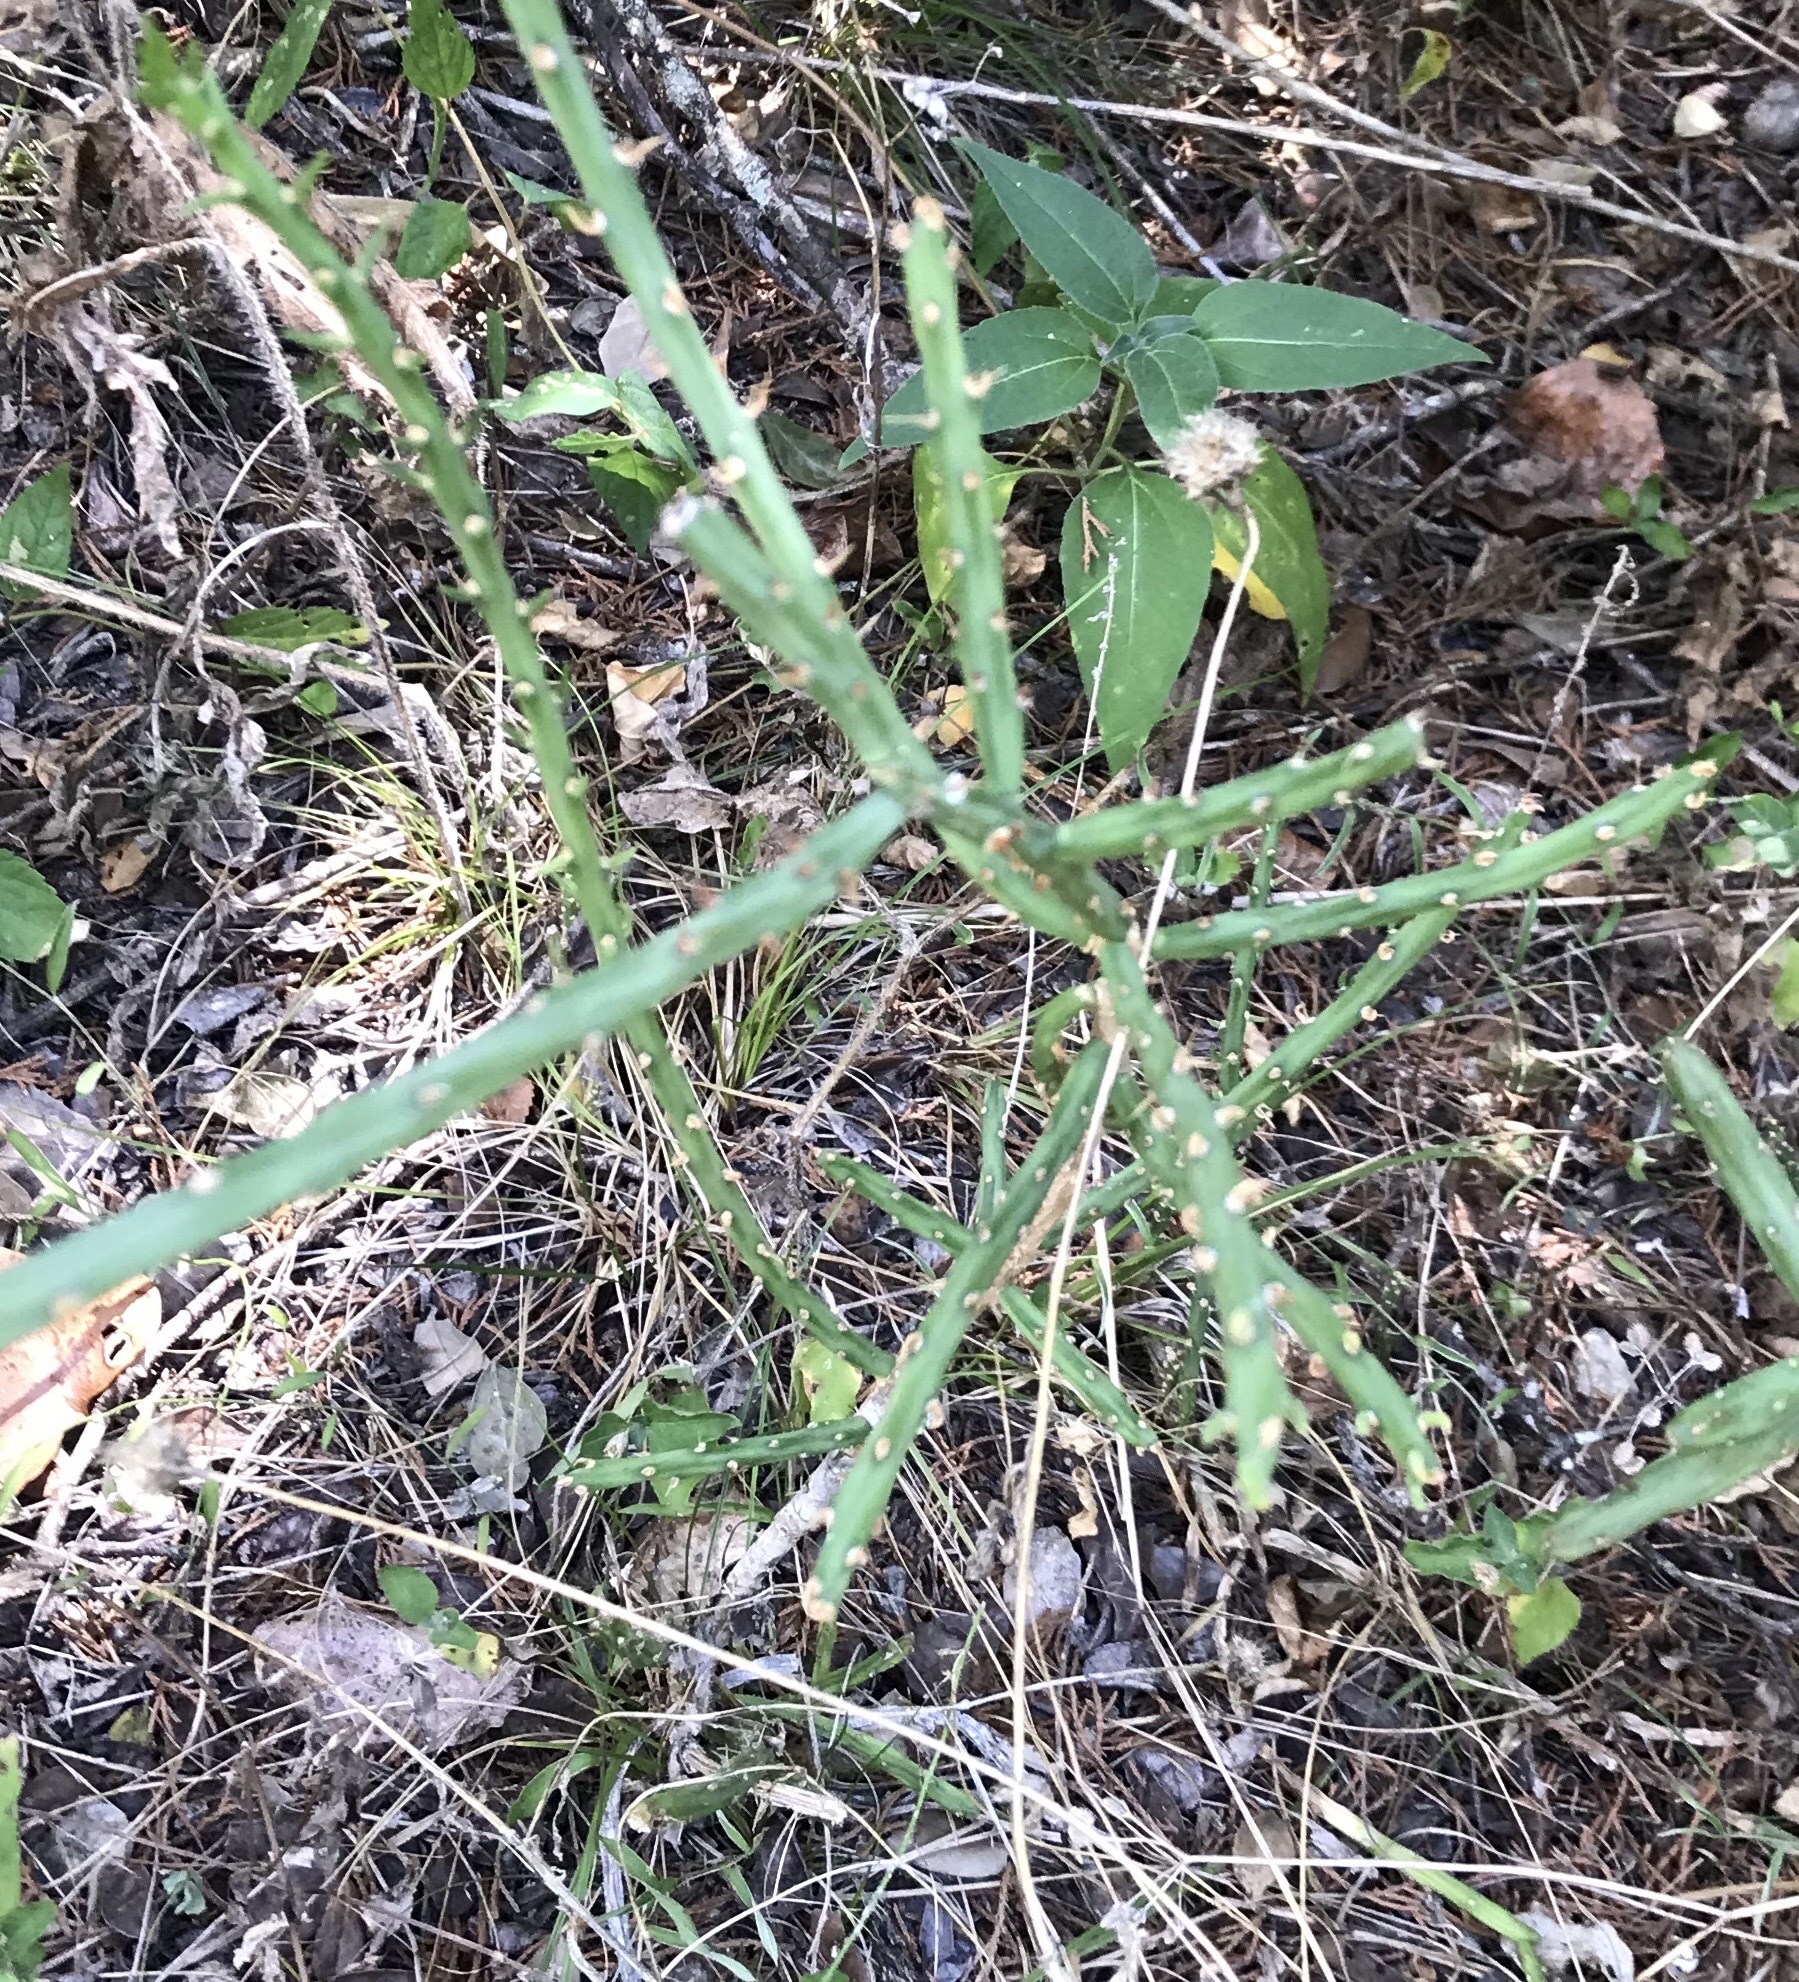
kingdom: Plantae
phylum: Tracheophyta
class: Magnoliopsida
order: Caryophyllales
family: Cactaceae
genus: Cylindropuntia
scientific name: Cylindropuntia leptocaulis
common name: Christmas cactus
